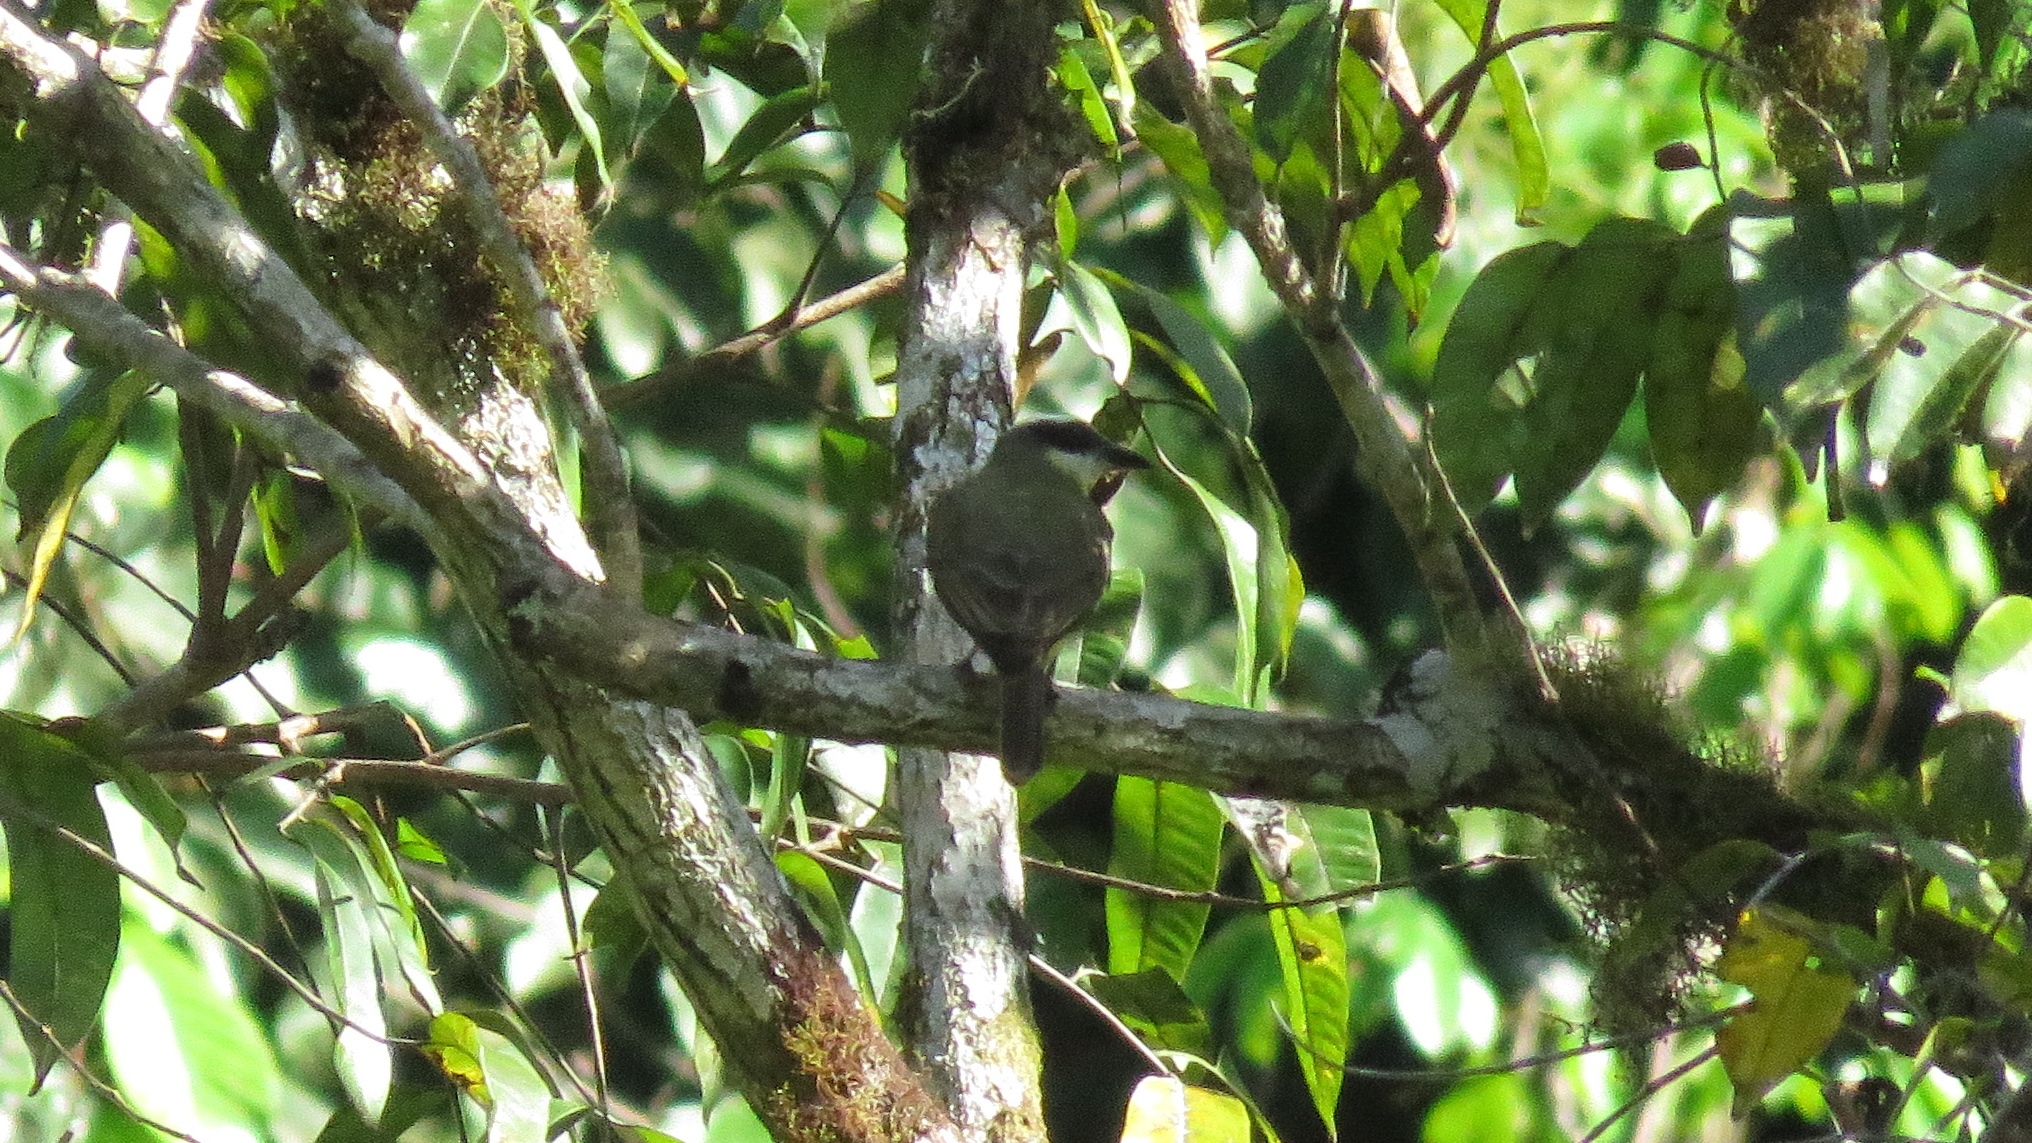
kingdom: Animalia
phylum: Chordata
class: Aves
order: Passeriformes
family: Tyrannidae
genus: Myiozetetes
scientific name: Myiozetetes similis
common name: Social flycatcher
